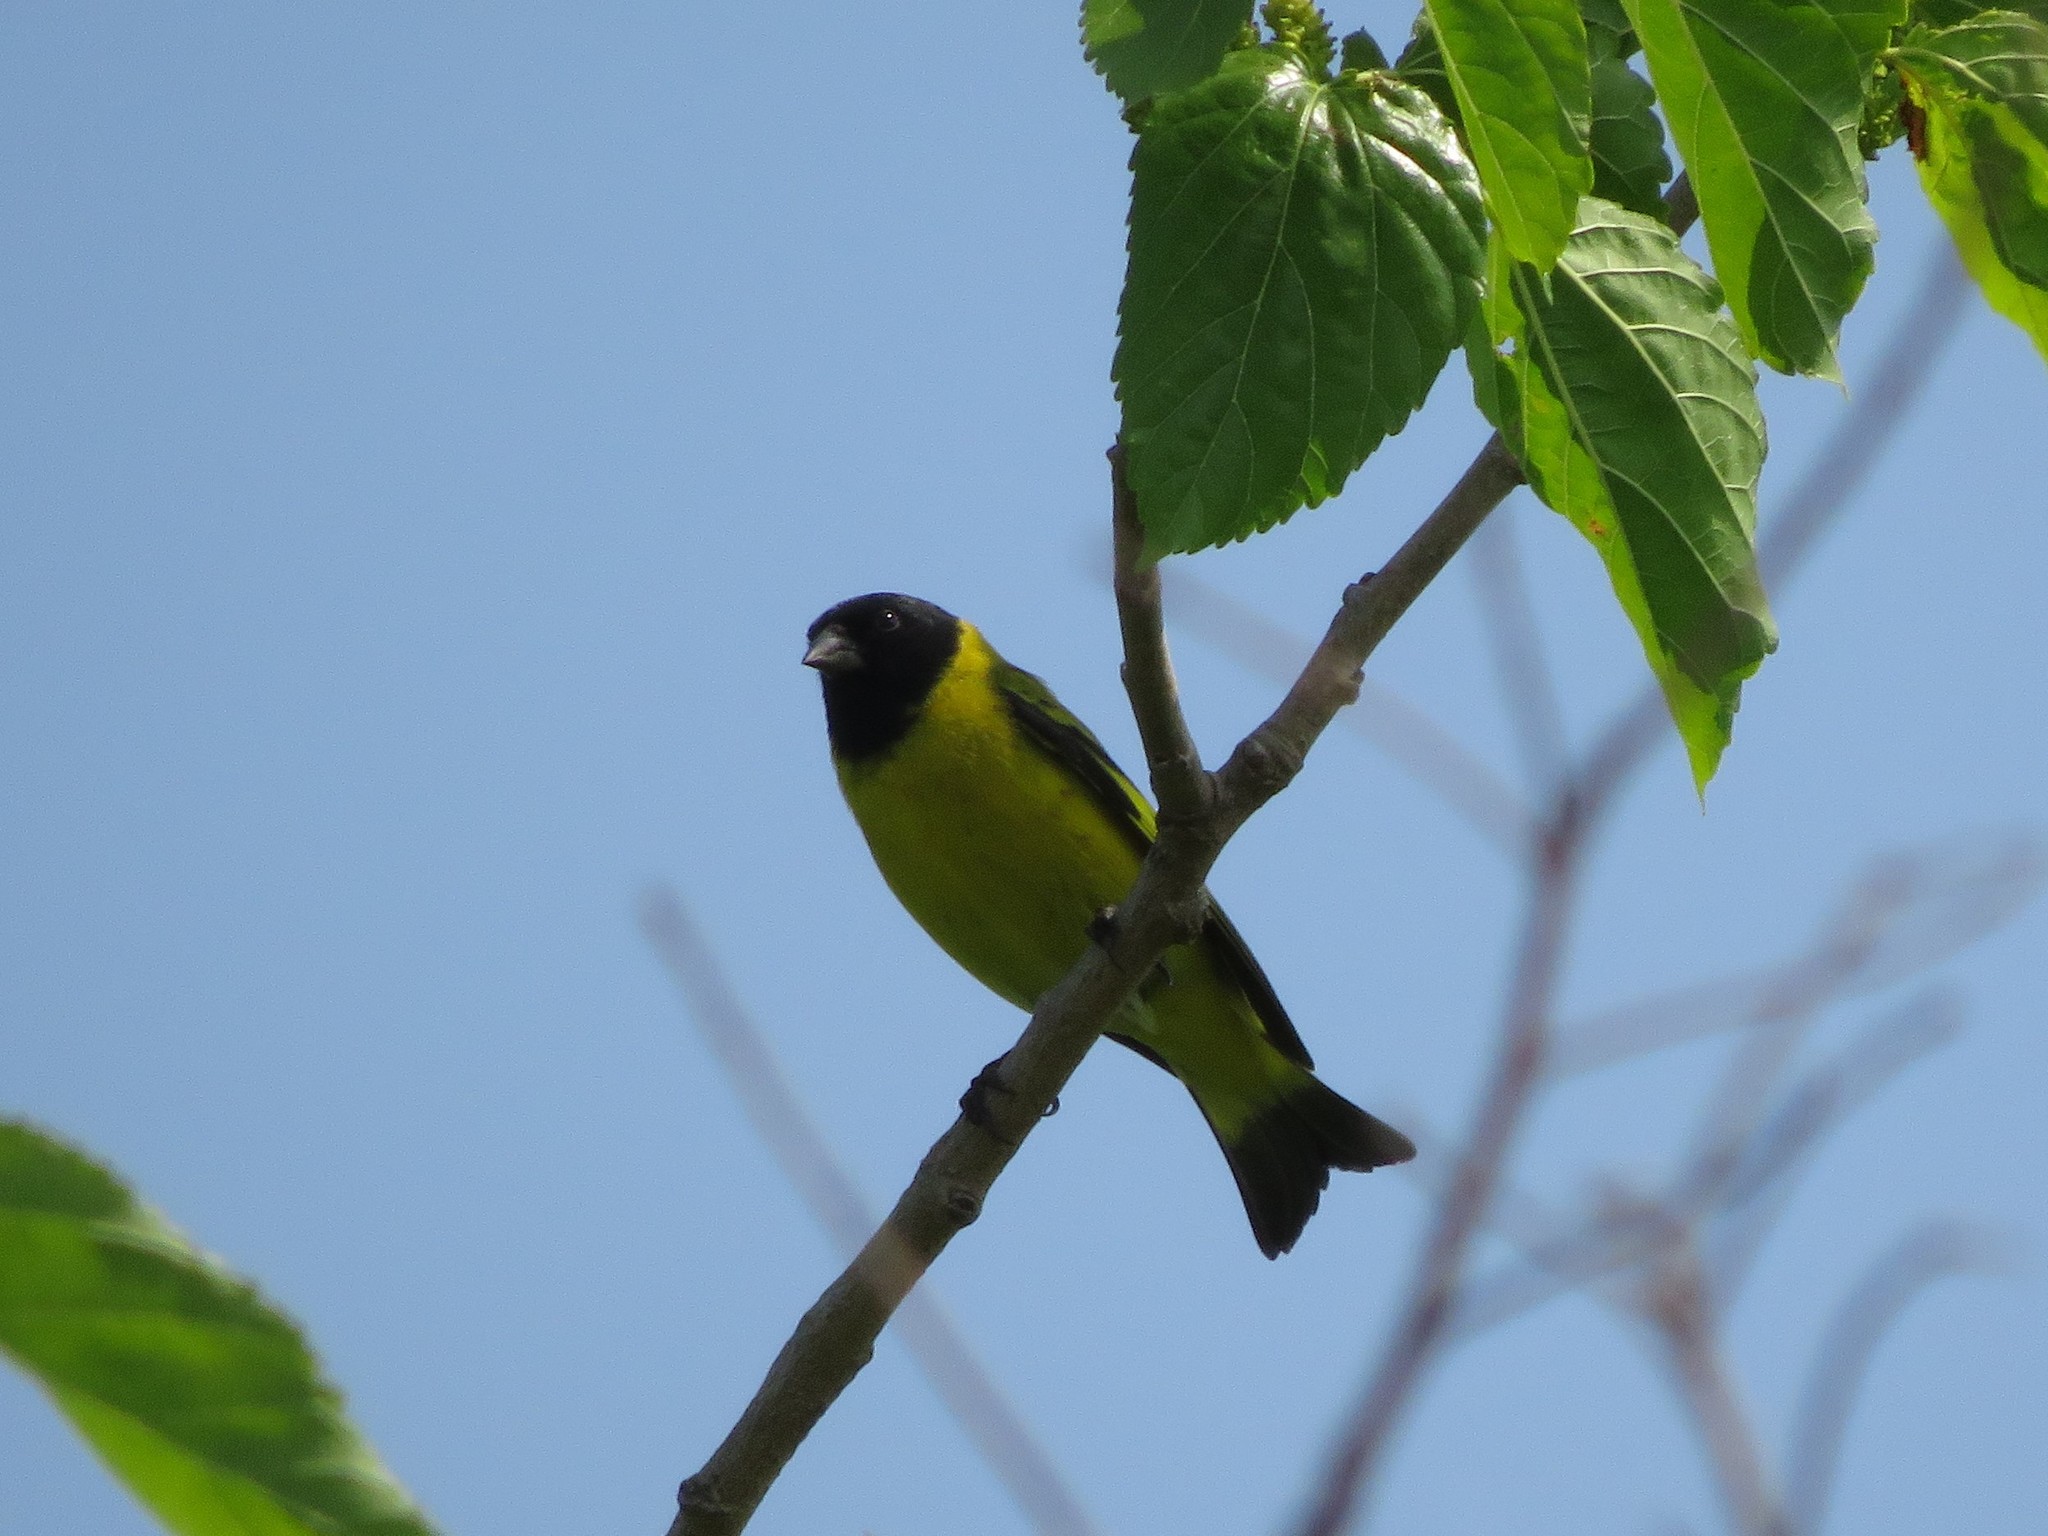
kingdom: Animalia
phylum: Chordata
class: Aves
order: Passeriformes
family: Fringillidae
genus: Spinus
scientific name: Spinus magellanicus
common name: Hooded siskin
